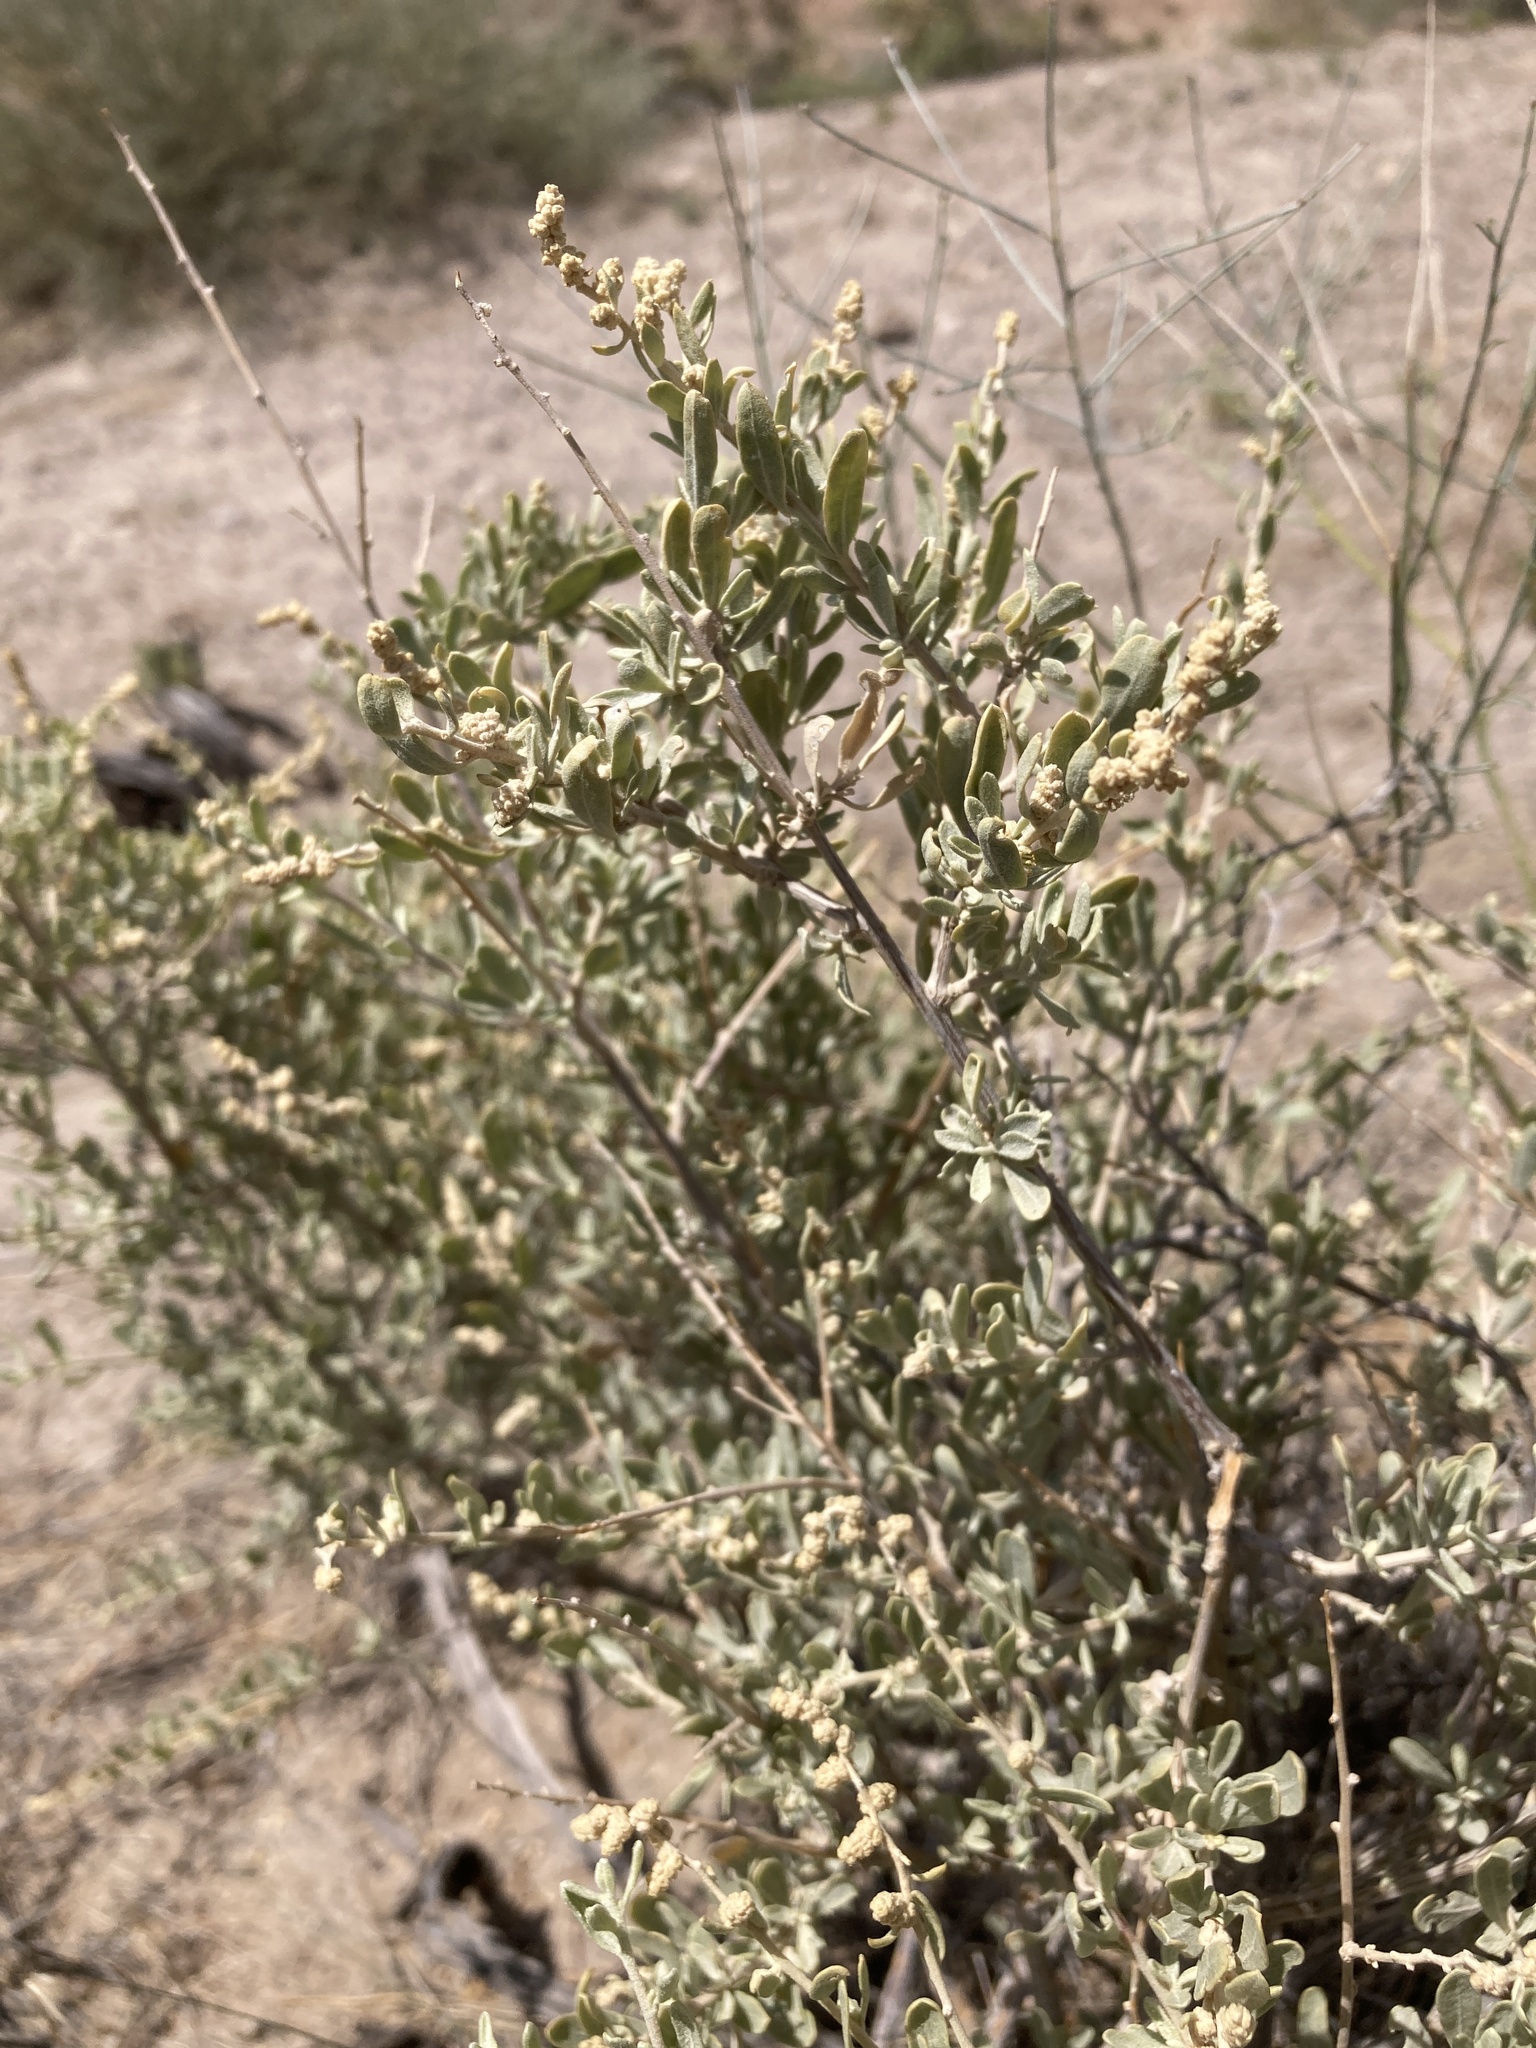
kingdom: Plantae
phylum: Tracheophyta
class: Magnoliopsida
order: Caryophyllales
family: Amaranthaceae
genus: Atriplex
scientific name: Atriplex canescens
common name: Four-wing saltbush
